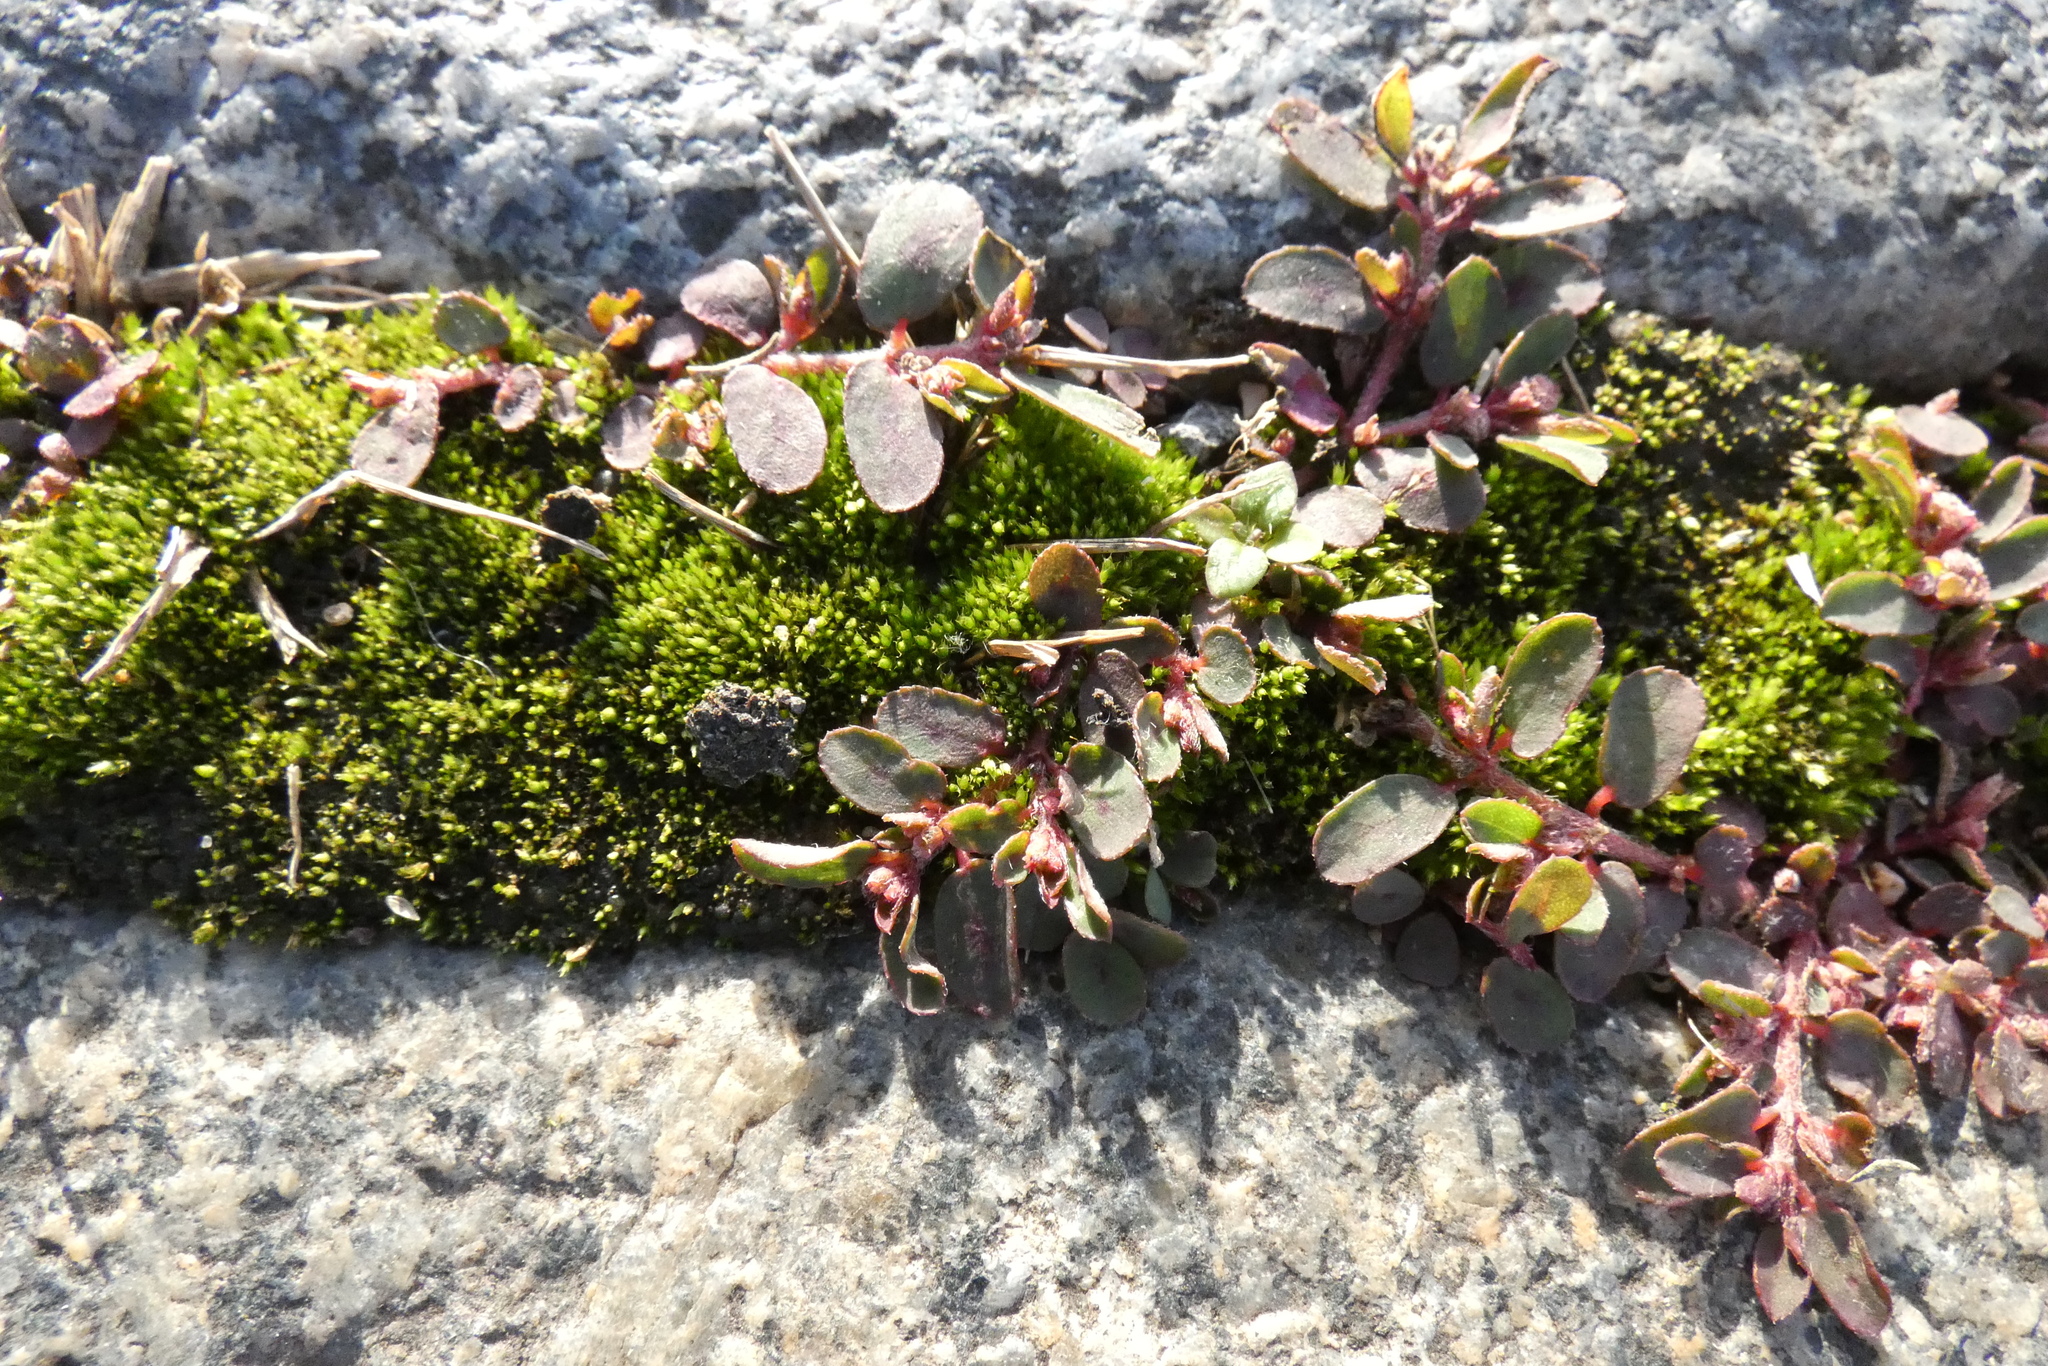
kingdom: Plantae
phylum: Tracheophyta
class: Magnoliopsida
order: Malpighiales
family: Euphorbiaceae
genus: Euphorbia
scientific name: Euphorbia maculata
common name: Spotted spurge
